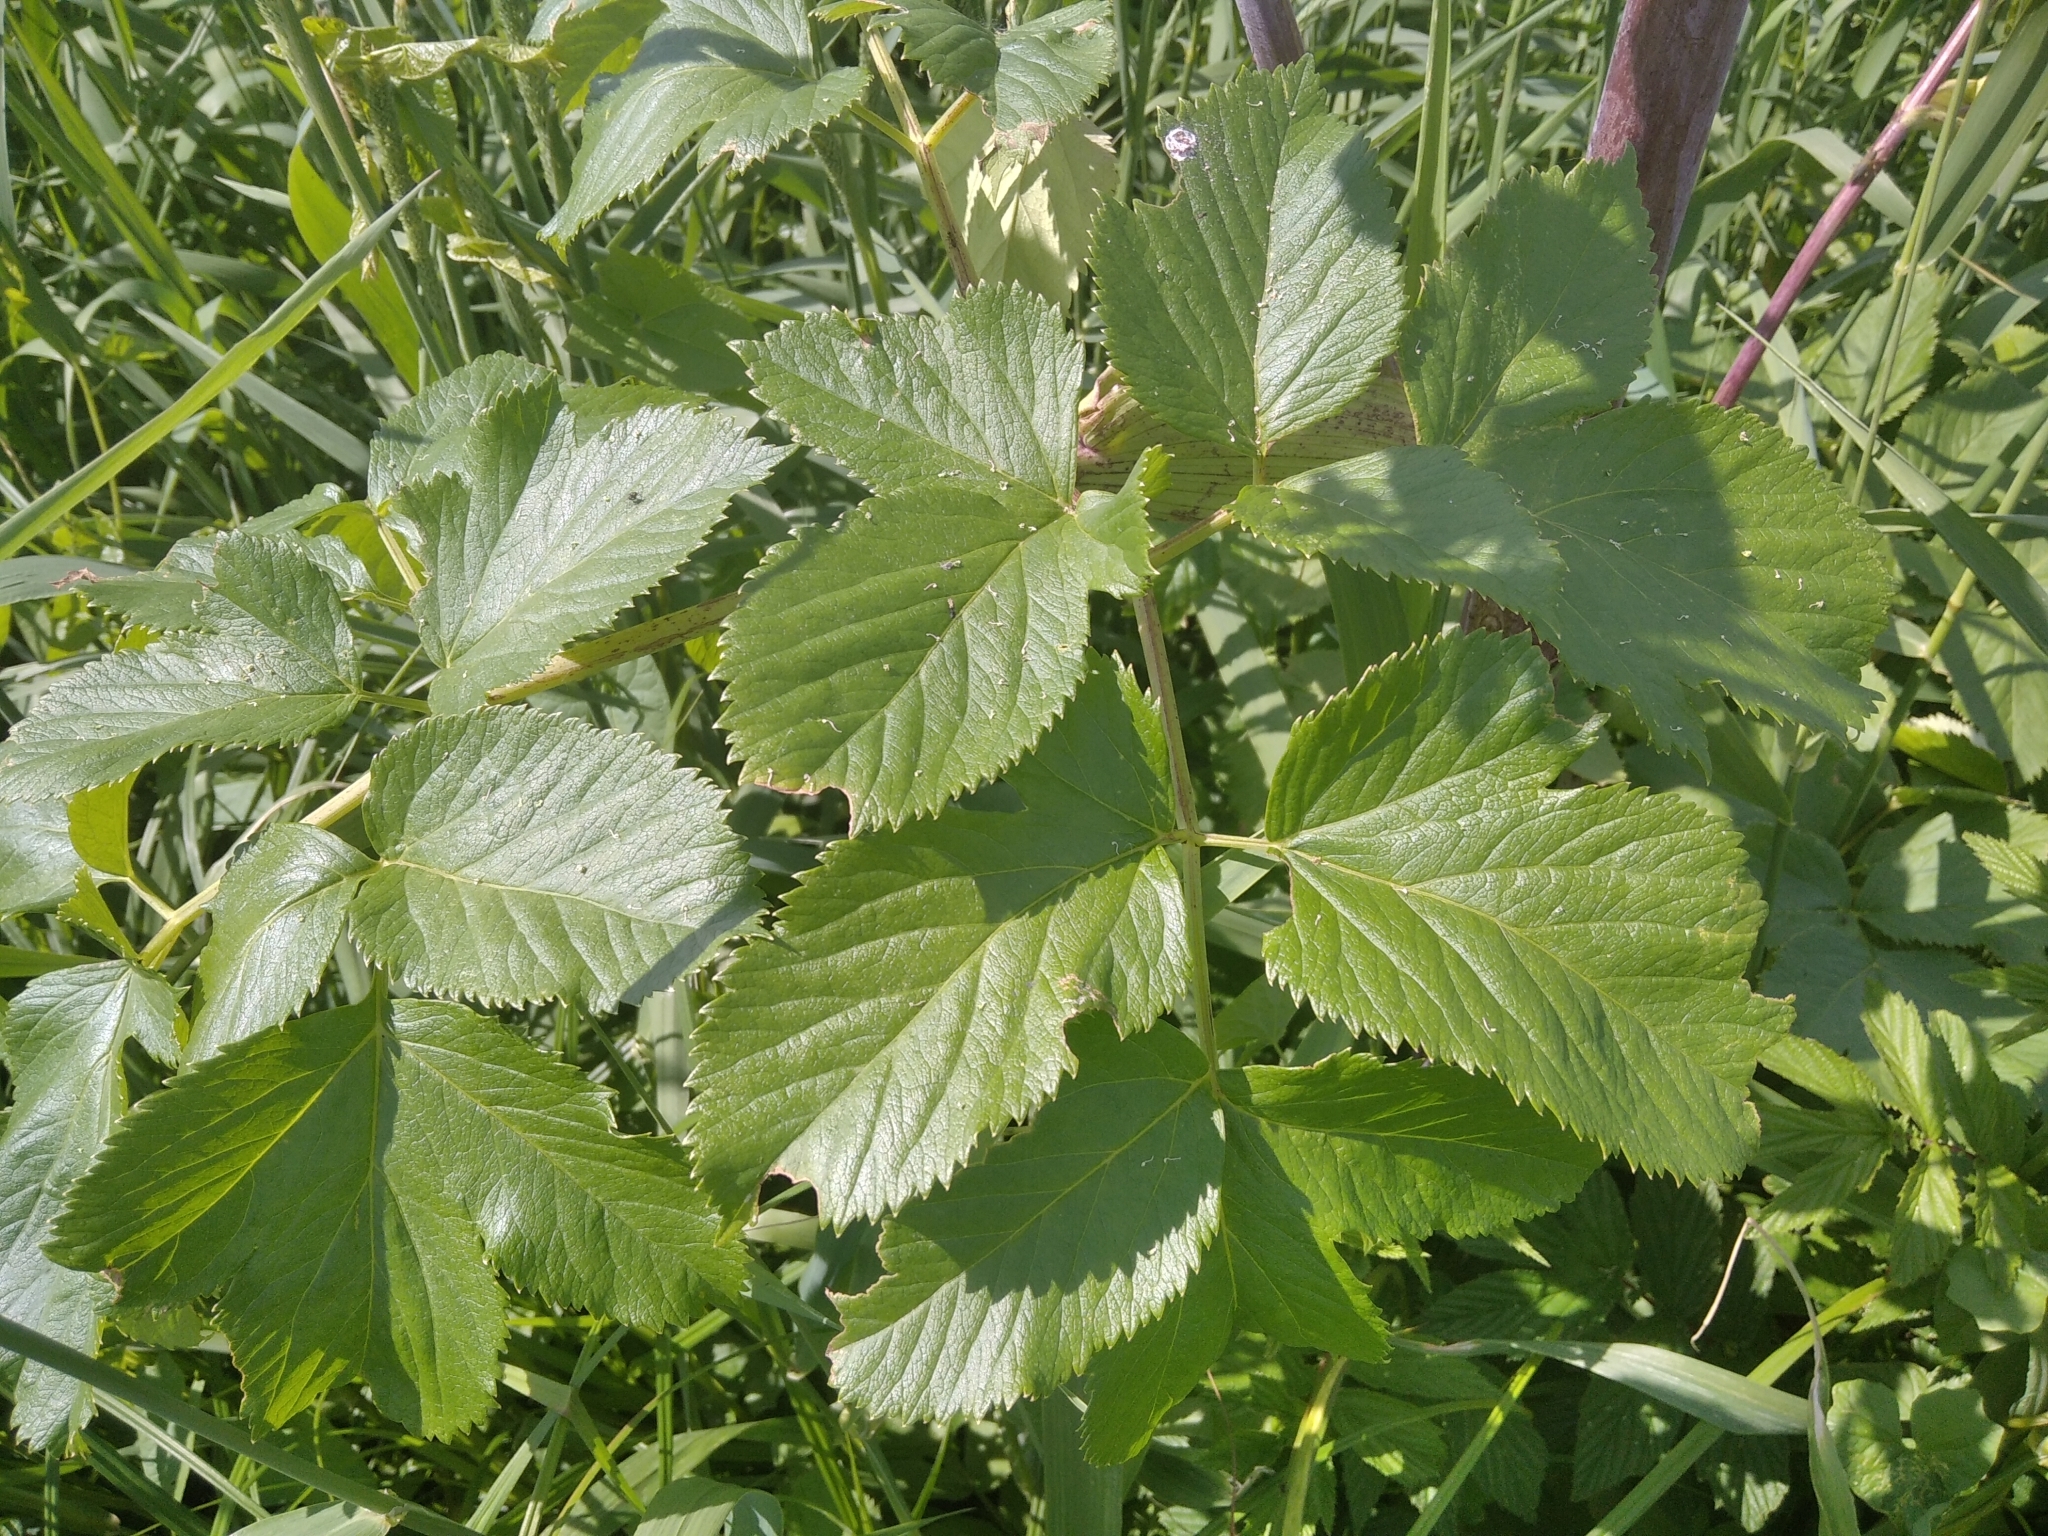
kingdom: Plantae
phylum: Tracheophyta
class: Magnoliopsida
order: Apiales
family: Apiaceae
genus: Angelica
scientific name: Angelica archangelica
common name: Garden angelica
